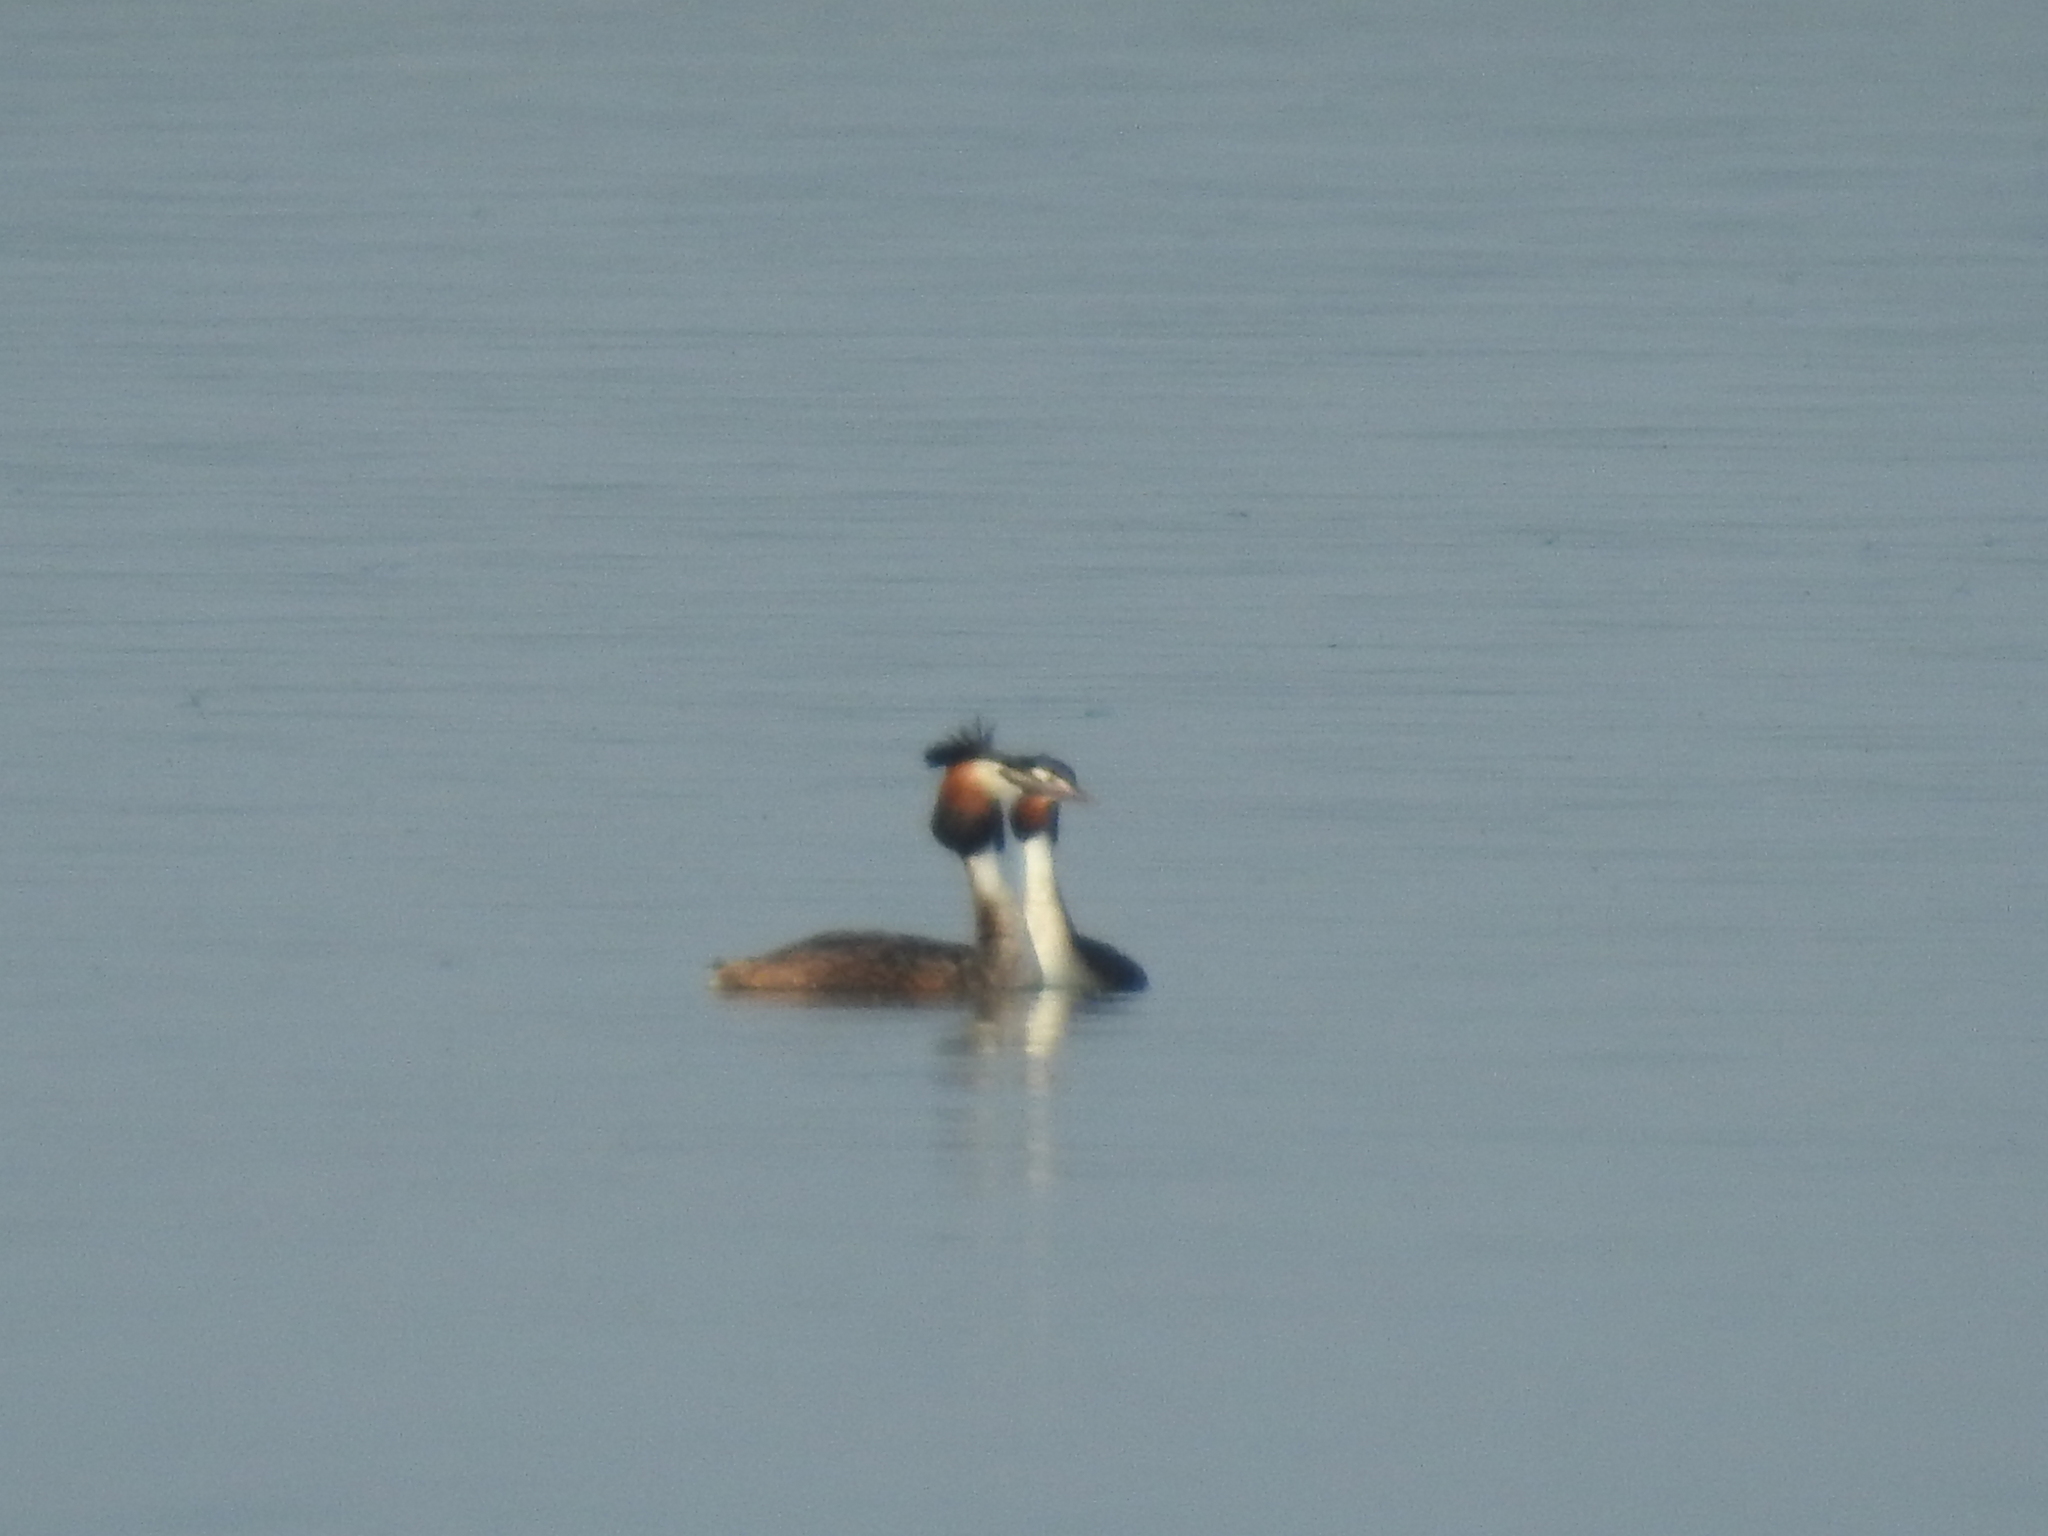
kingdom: Animalia
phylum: Chordata
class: Aves
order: Podicipediformes
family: Podicipedidae
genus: Podiceps
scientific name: Podiceps cristatus
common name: Great crested grebe
